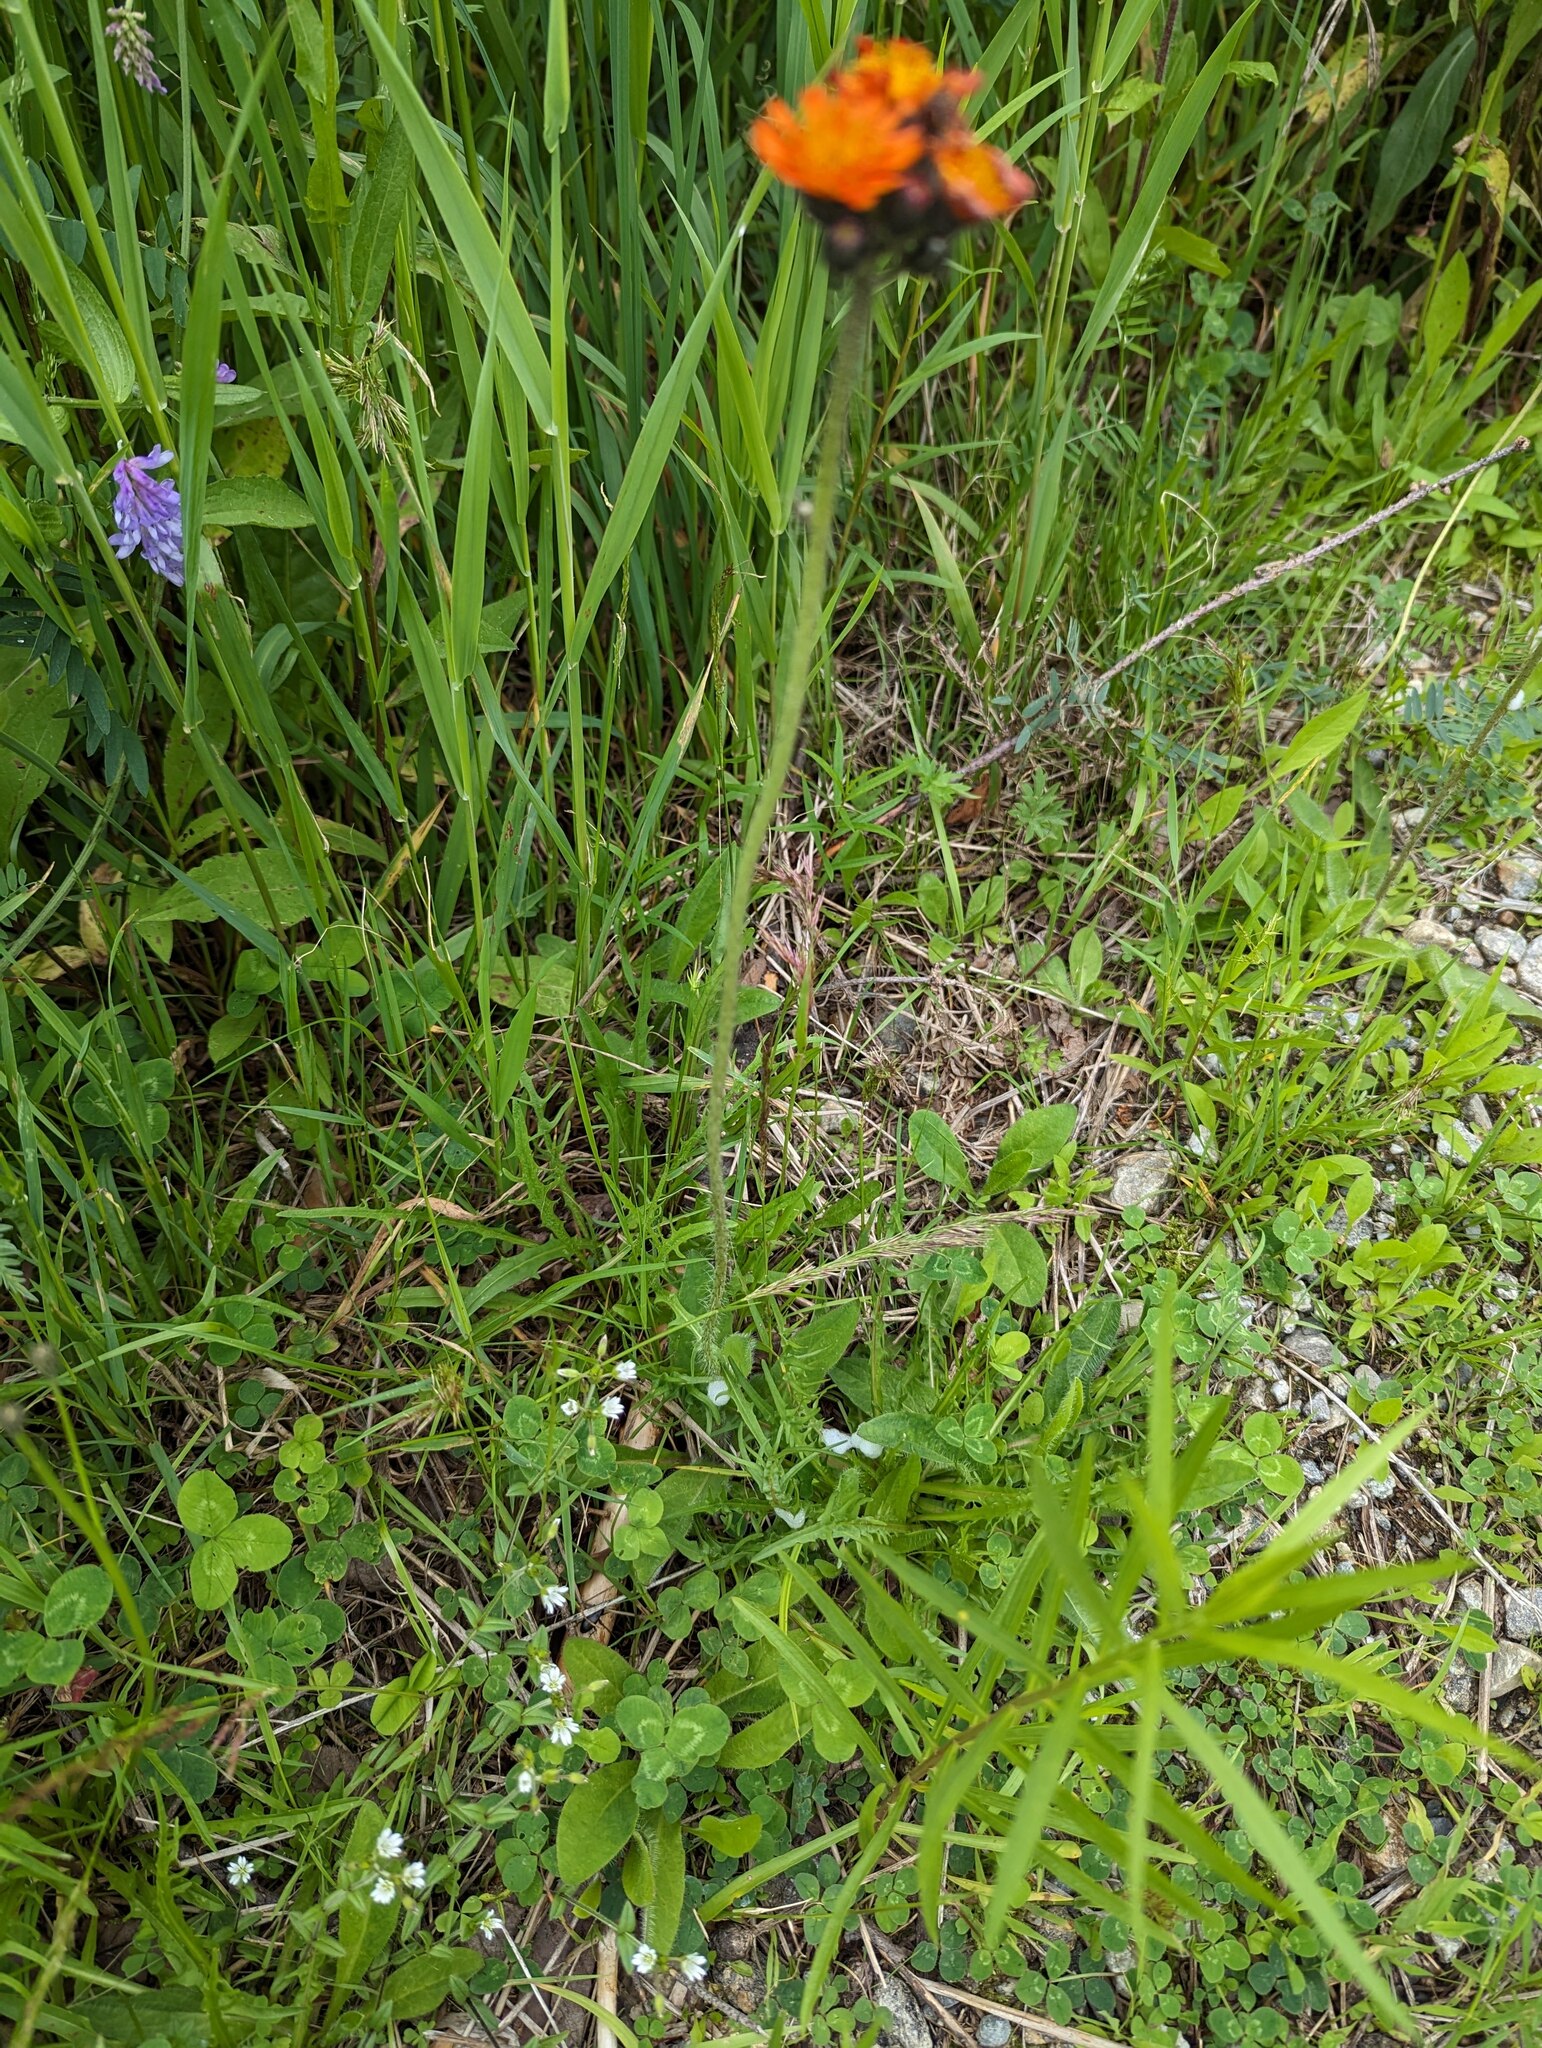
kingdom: Plantae
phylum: Tracheophyta
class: Magnoliopsida
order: Asterales
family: Asteraceae
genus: Pilosella
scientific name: Pilosella aurantiaca
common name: Fox-and-cubs
